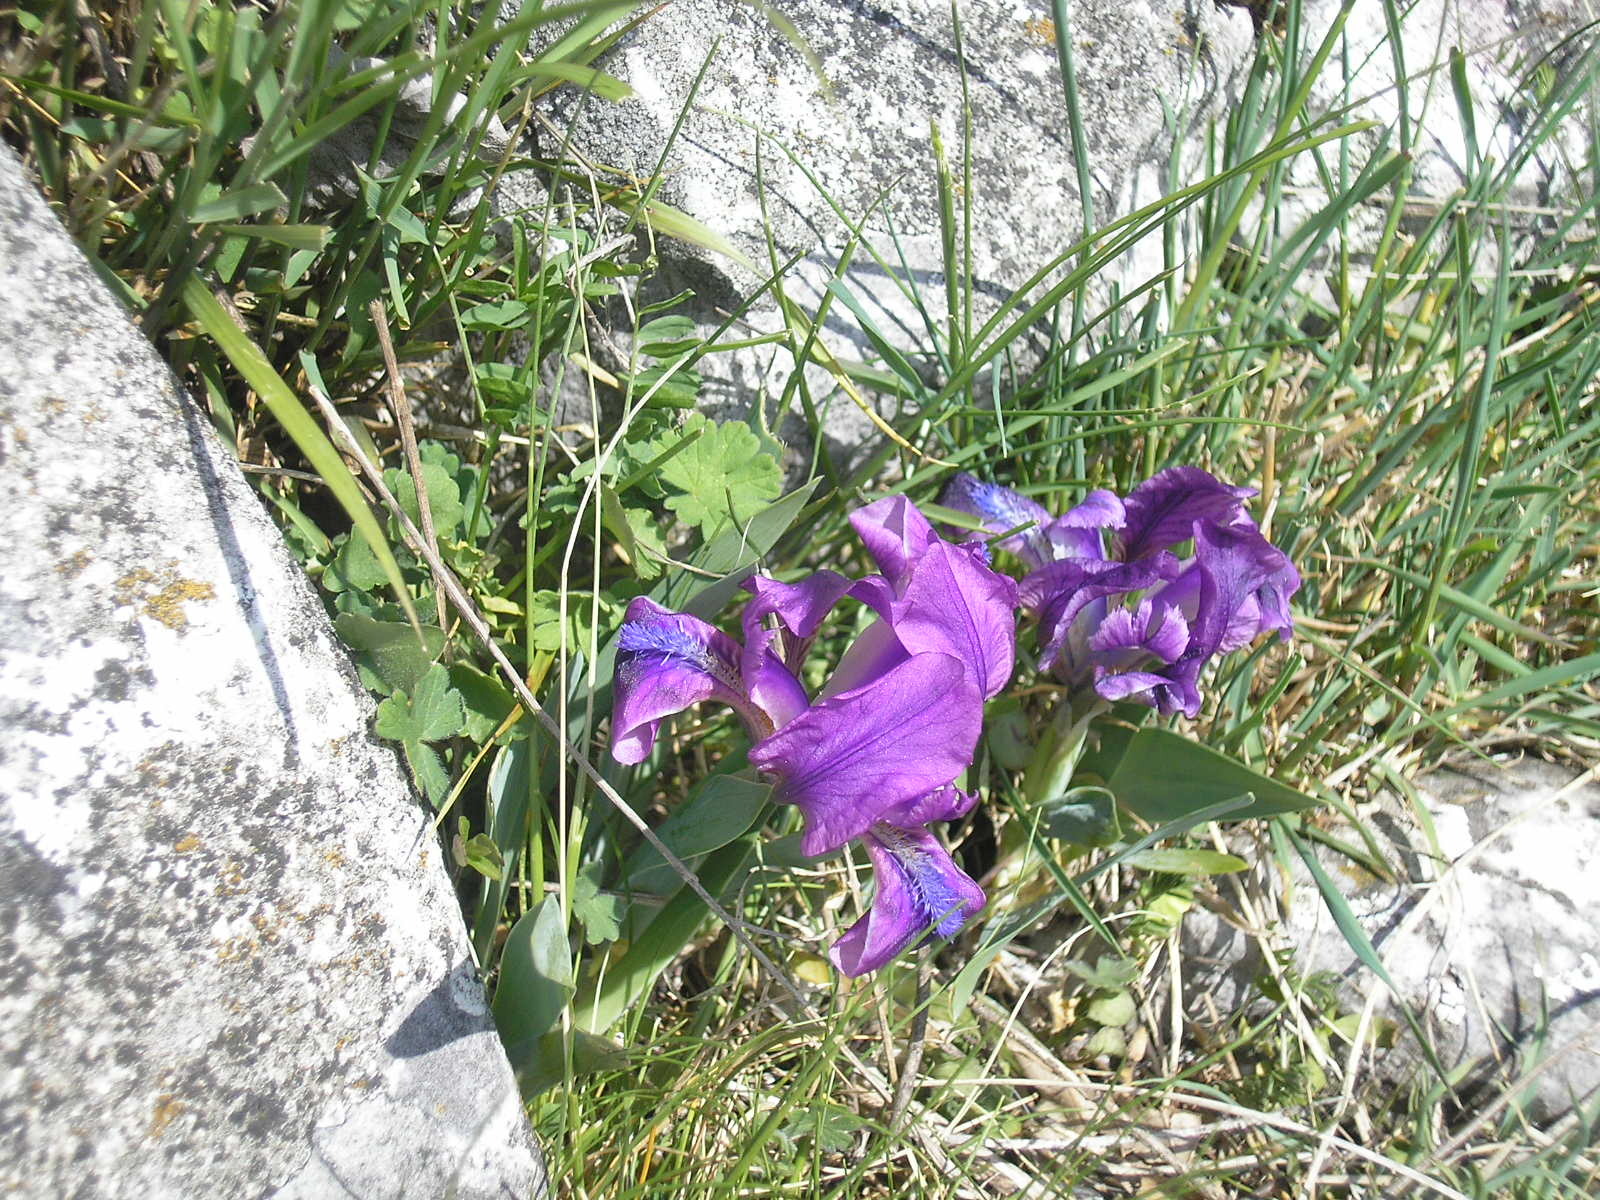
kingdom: Plantae
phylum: Tracheophyta
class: Liliopsida
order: Asparagales
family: Iridaceae
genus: Iris
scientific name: Iris pumila
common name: Dwarf iris
